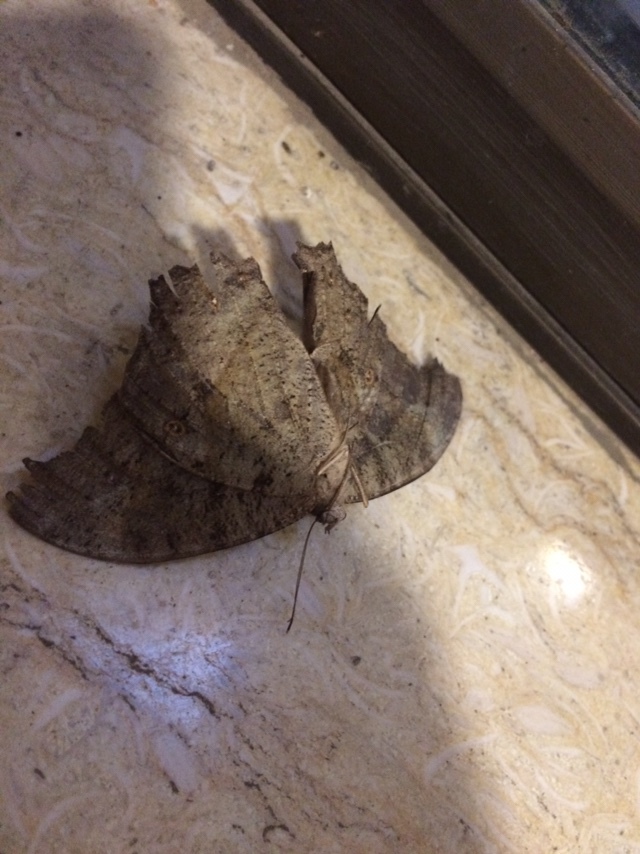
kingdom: Animalia
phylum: Arthropoda
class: Insecta
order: Lepidoptera
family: Nymphalidae
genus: Melanitis
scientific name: Melanitis leda
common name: Twilight brown
